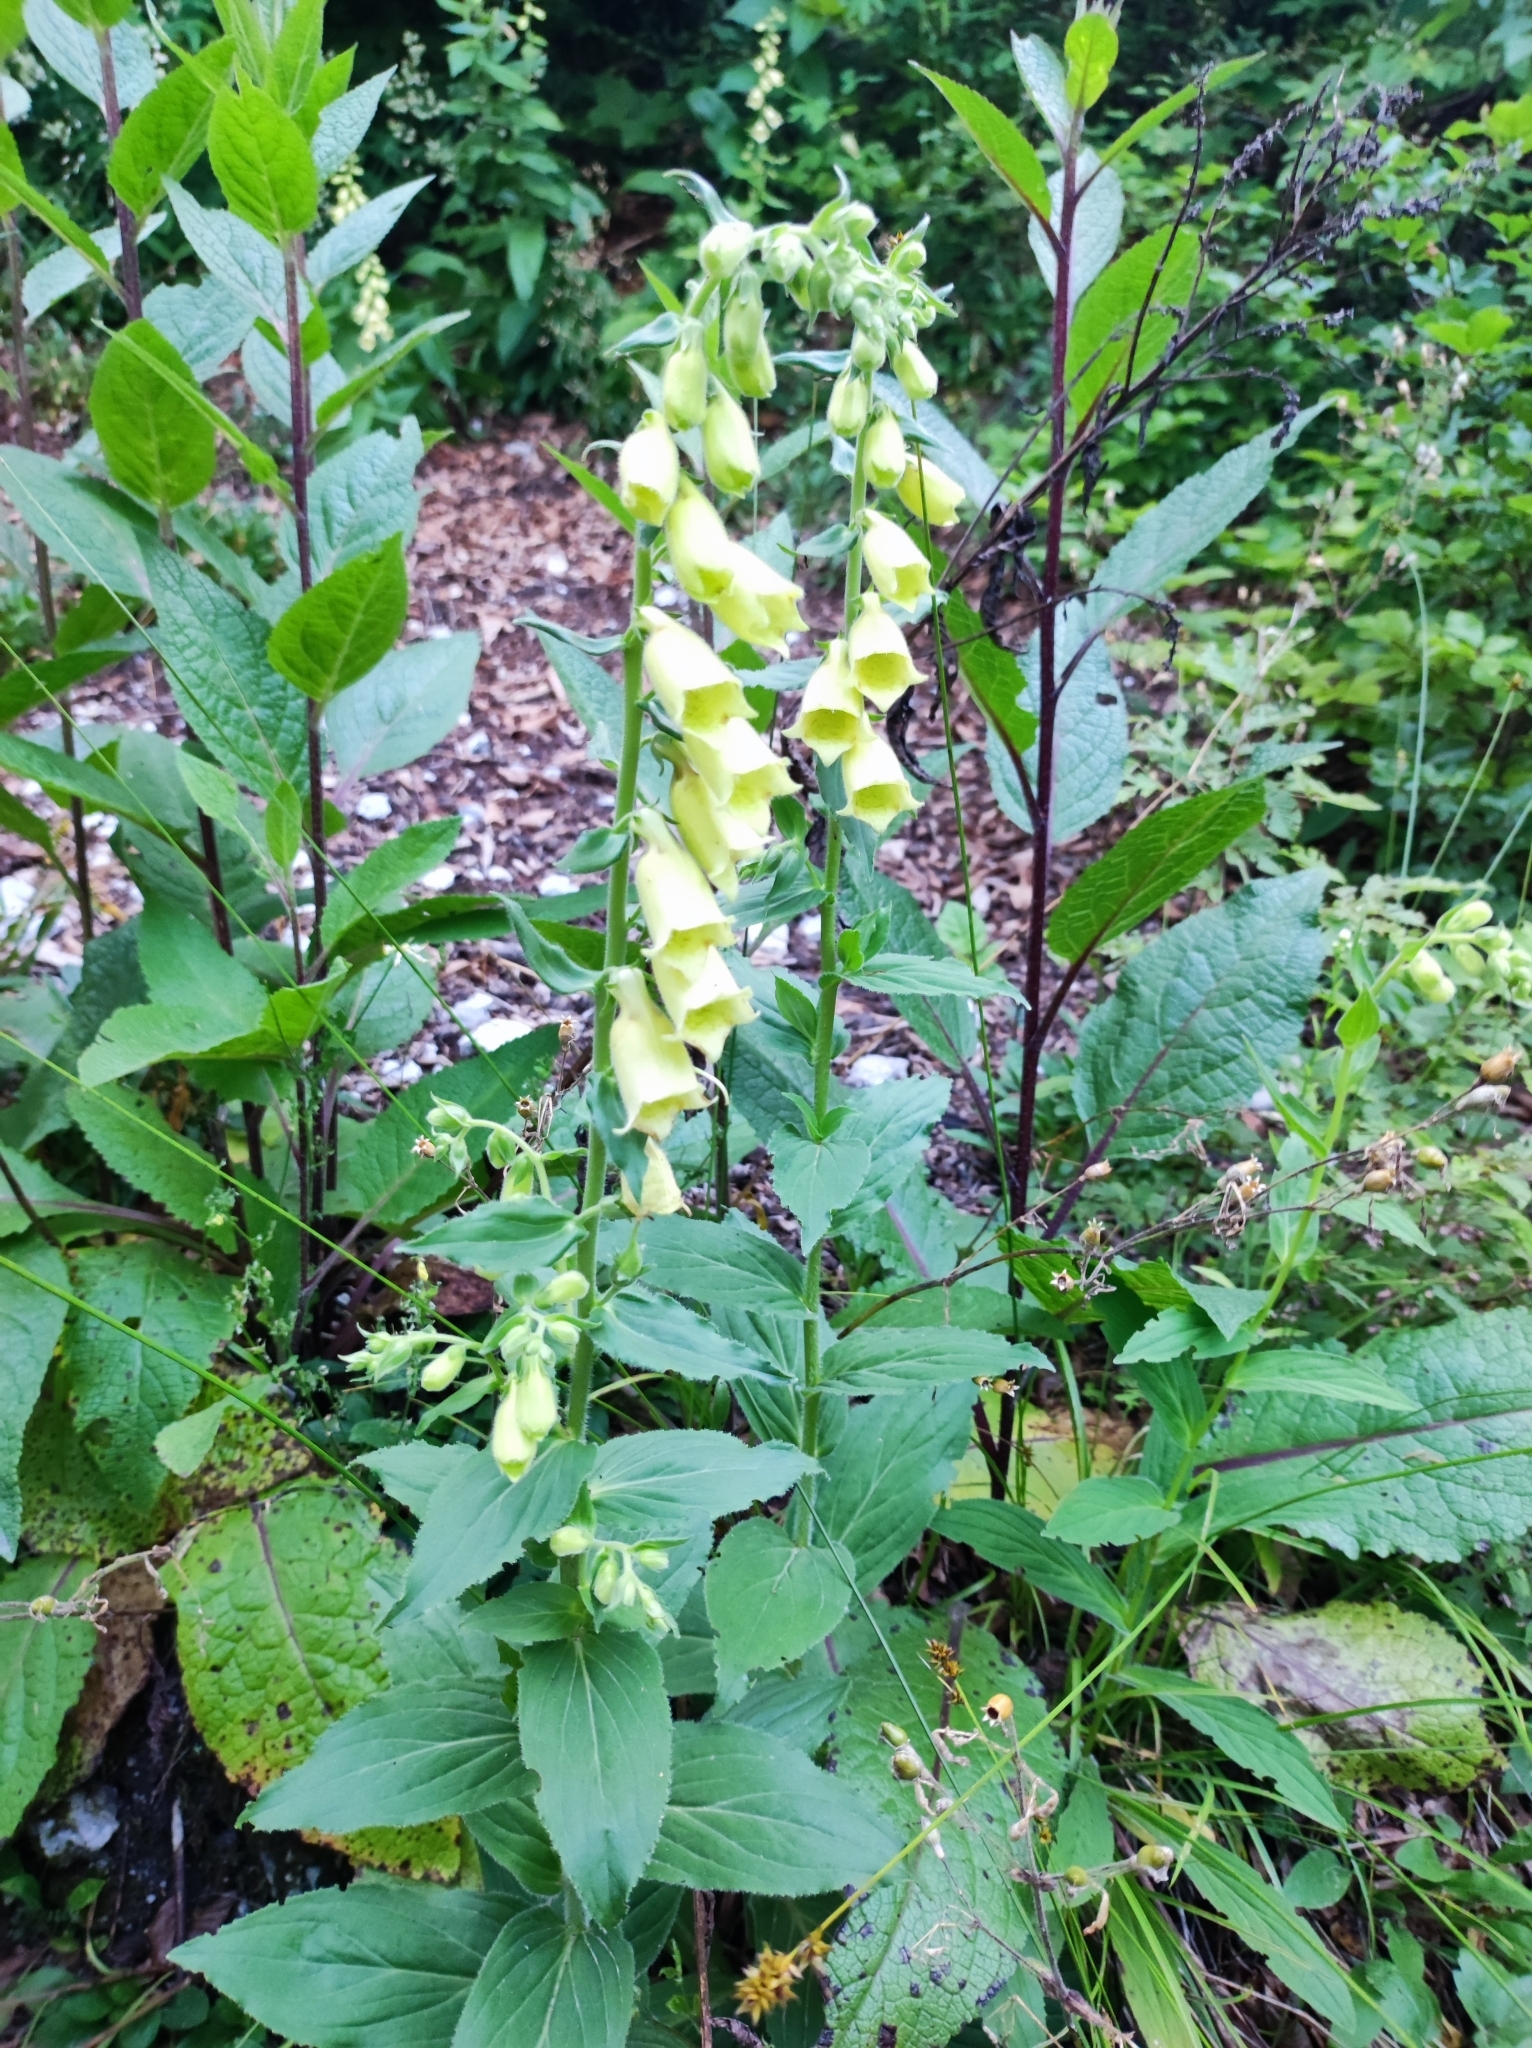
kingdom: Plantae
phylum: Tracheophyta
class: Magnoliopsida
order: Lamiales
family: Plantaginaceae
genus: Digitalis
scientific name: Digitalis grandiflora
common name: Yellow foxglove
